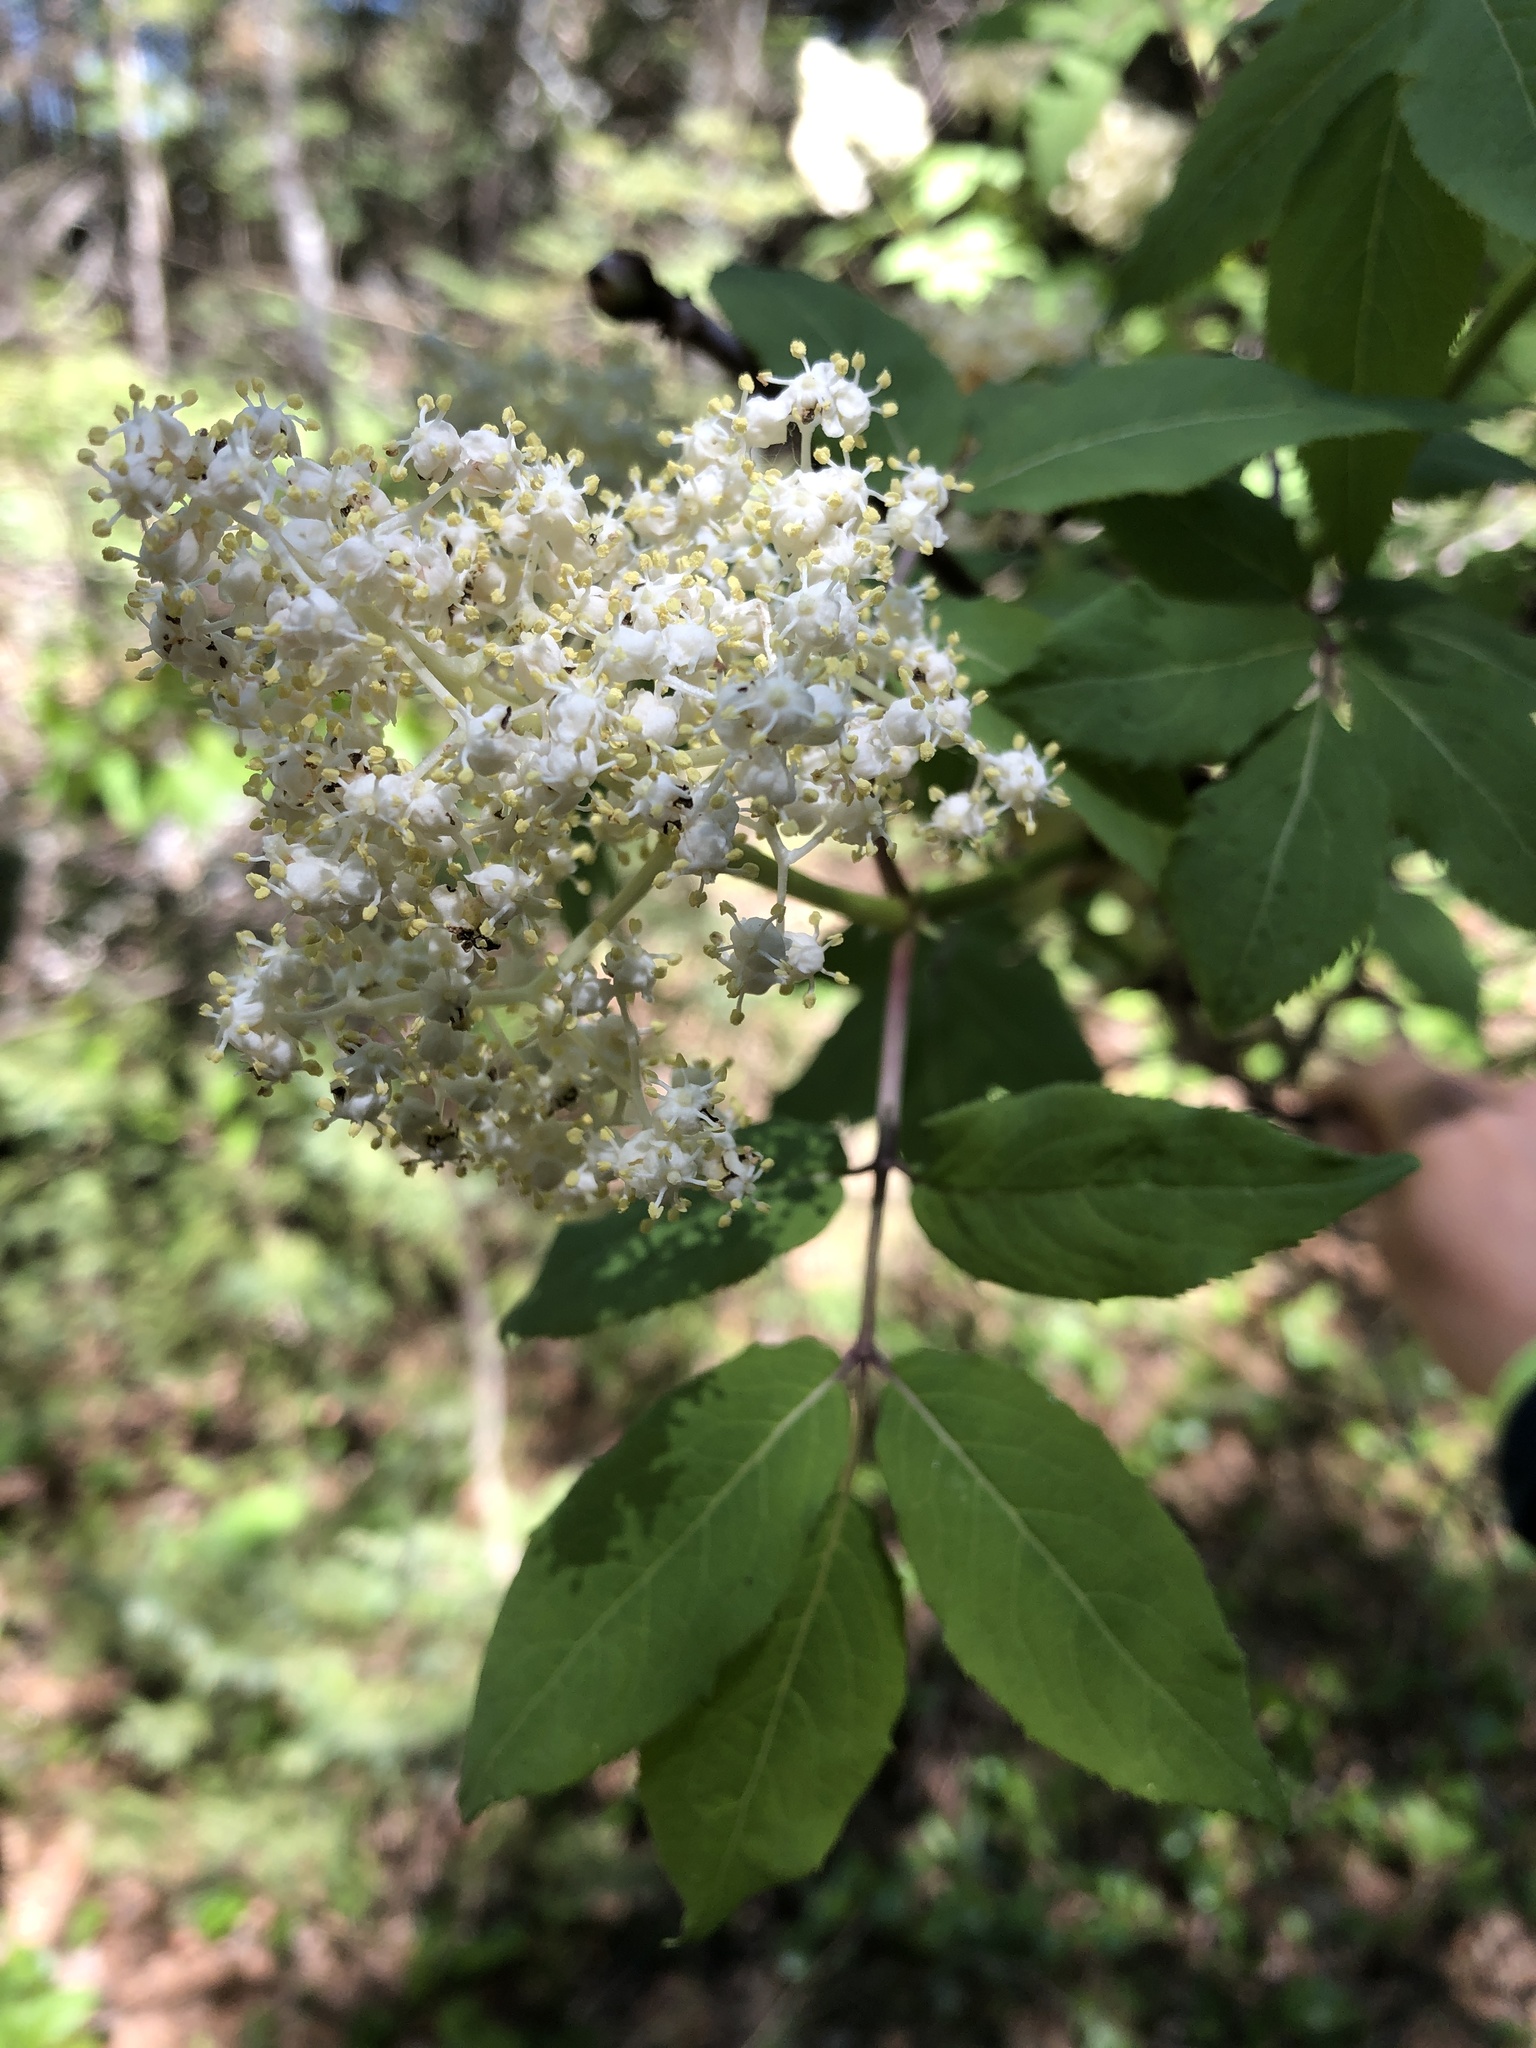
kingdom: Plantae
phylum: Tracheophyta
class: Magnoliopsida
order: Dipsacales
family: Viburnaceae
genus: Sambucus
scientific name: Sambucus racemosa
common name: Red-berried elder
